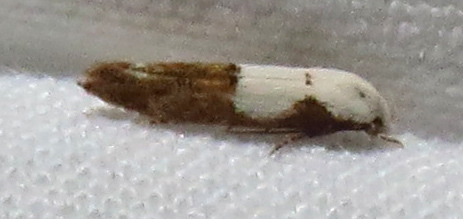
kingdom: Animalia
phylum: Arthropoda
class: Insecta
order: Lepidoptera
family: Momphidae
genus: Mompha
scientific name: Mompha circumscriptella
